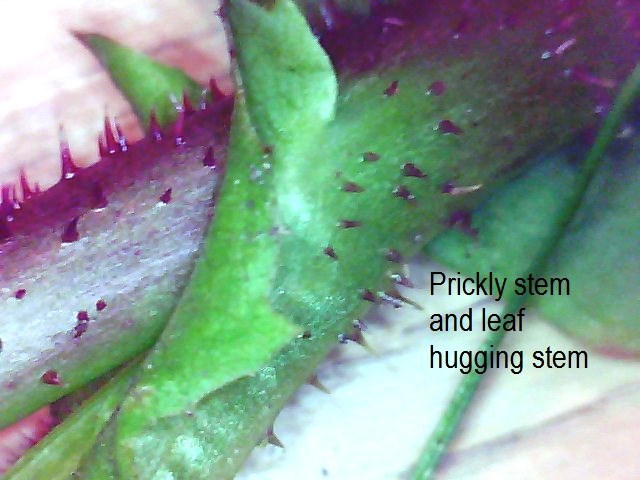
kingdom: Plantae
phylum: Tracheophyta
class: Magnoliopsida
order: Asterales
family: Asteraceae
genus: Lactuca
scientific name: Lactuca serriola
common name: Prickly lettuce
